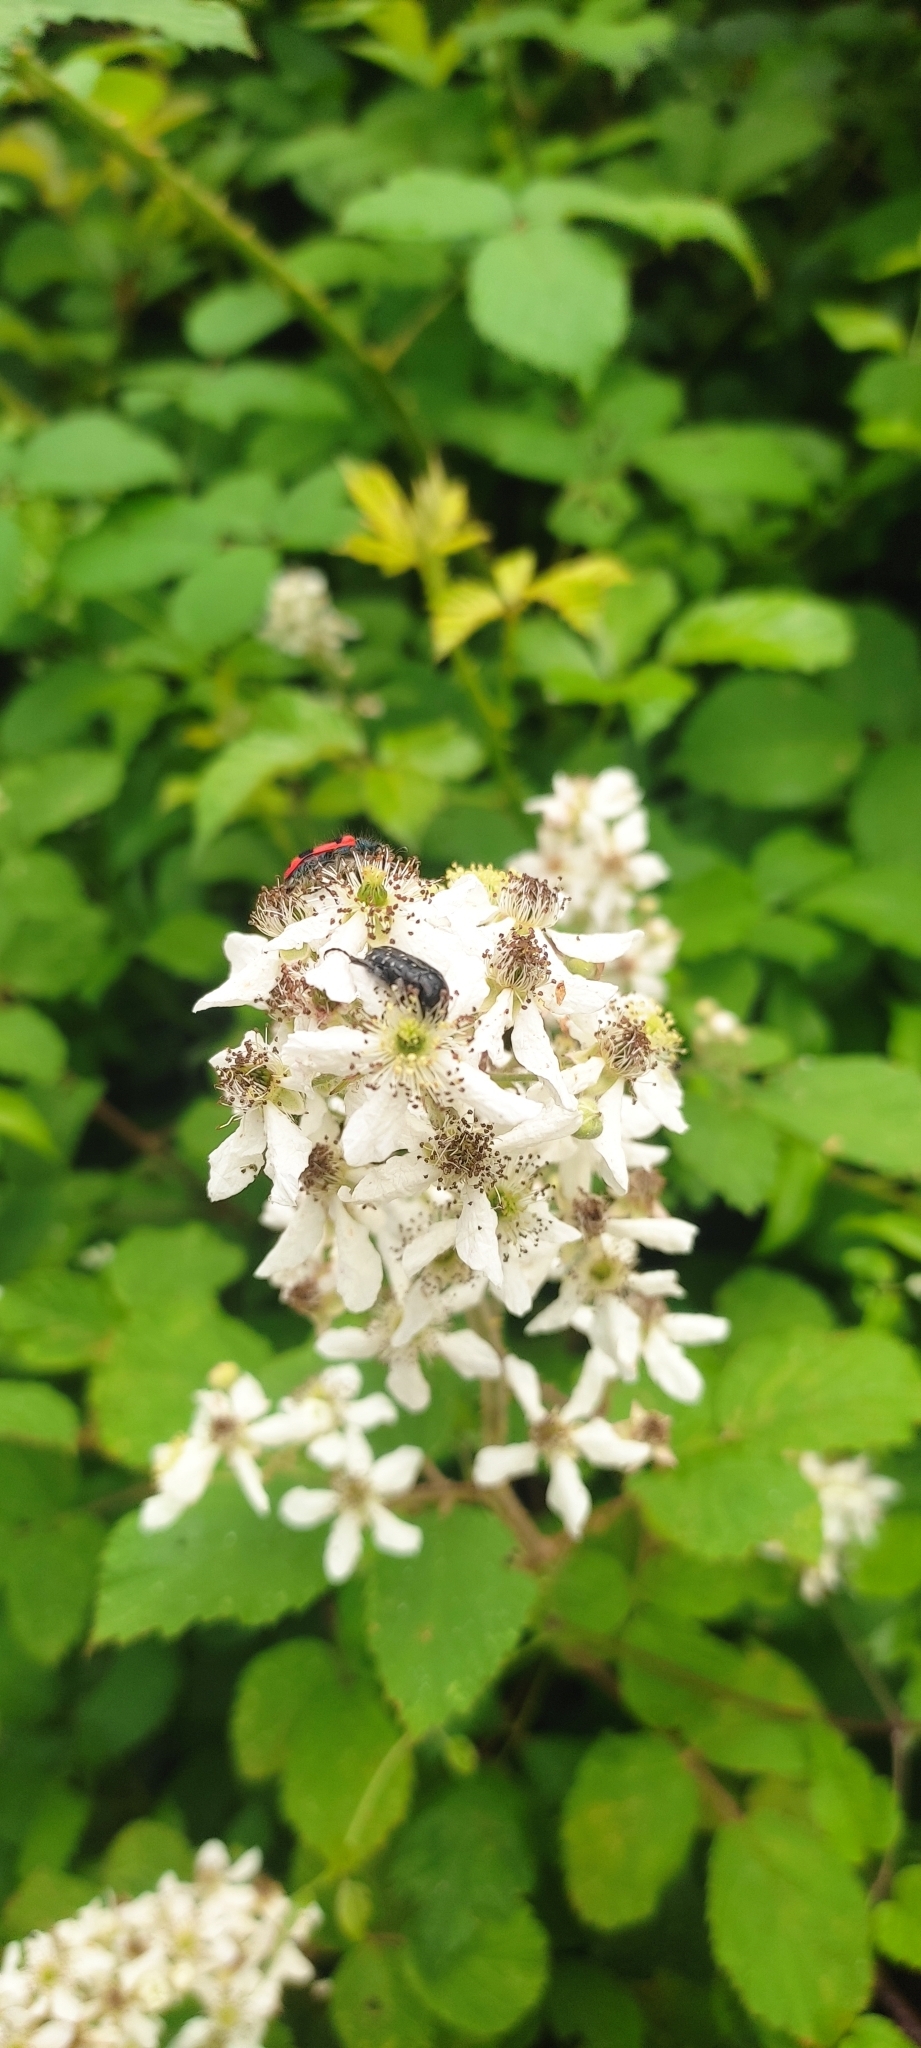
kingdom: Animalia
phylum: Arthropoda
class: Insecta
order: Coleoptera
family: Scarabaeidae
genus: Oxythyrea
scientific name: Oxythyrea funesta
